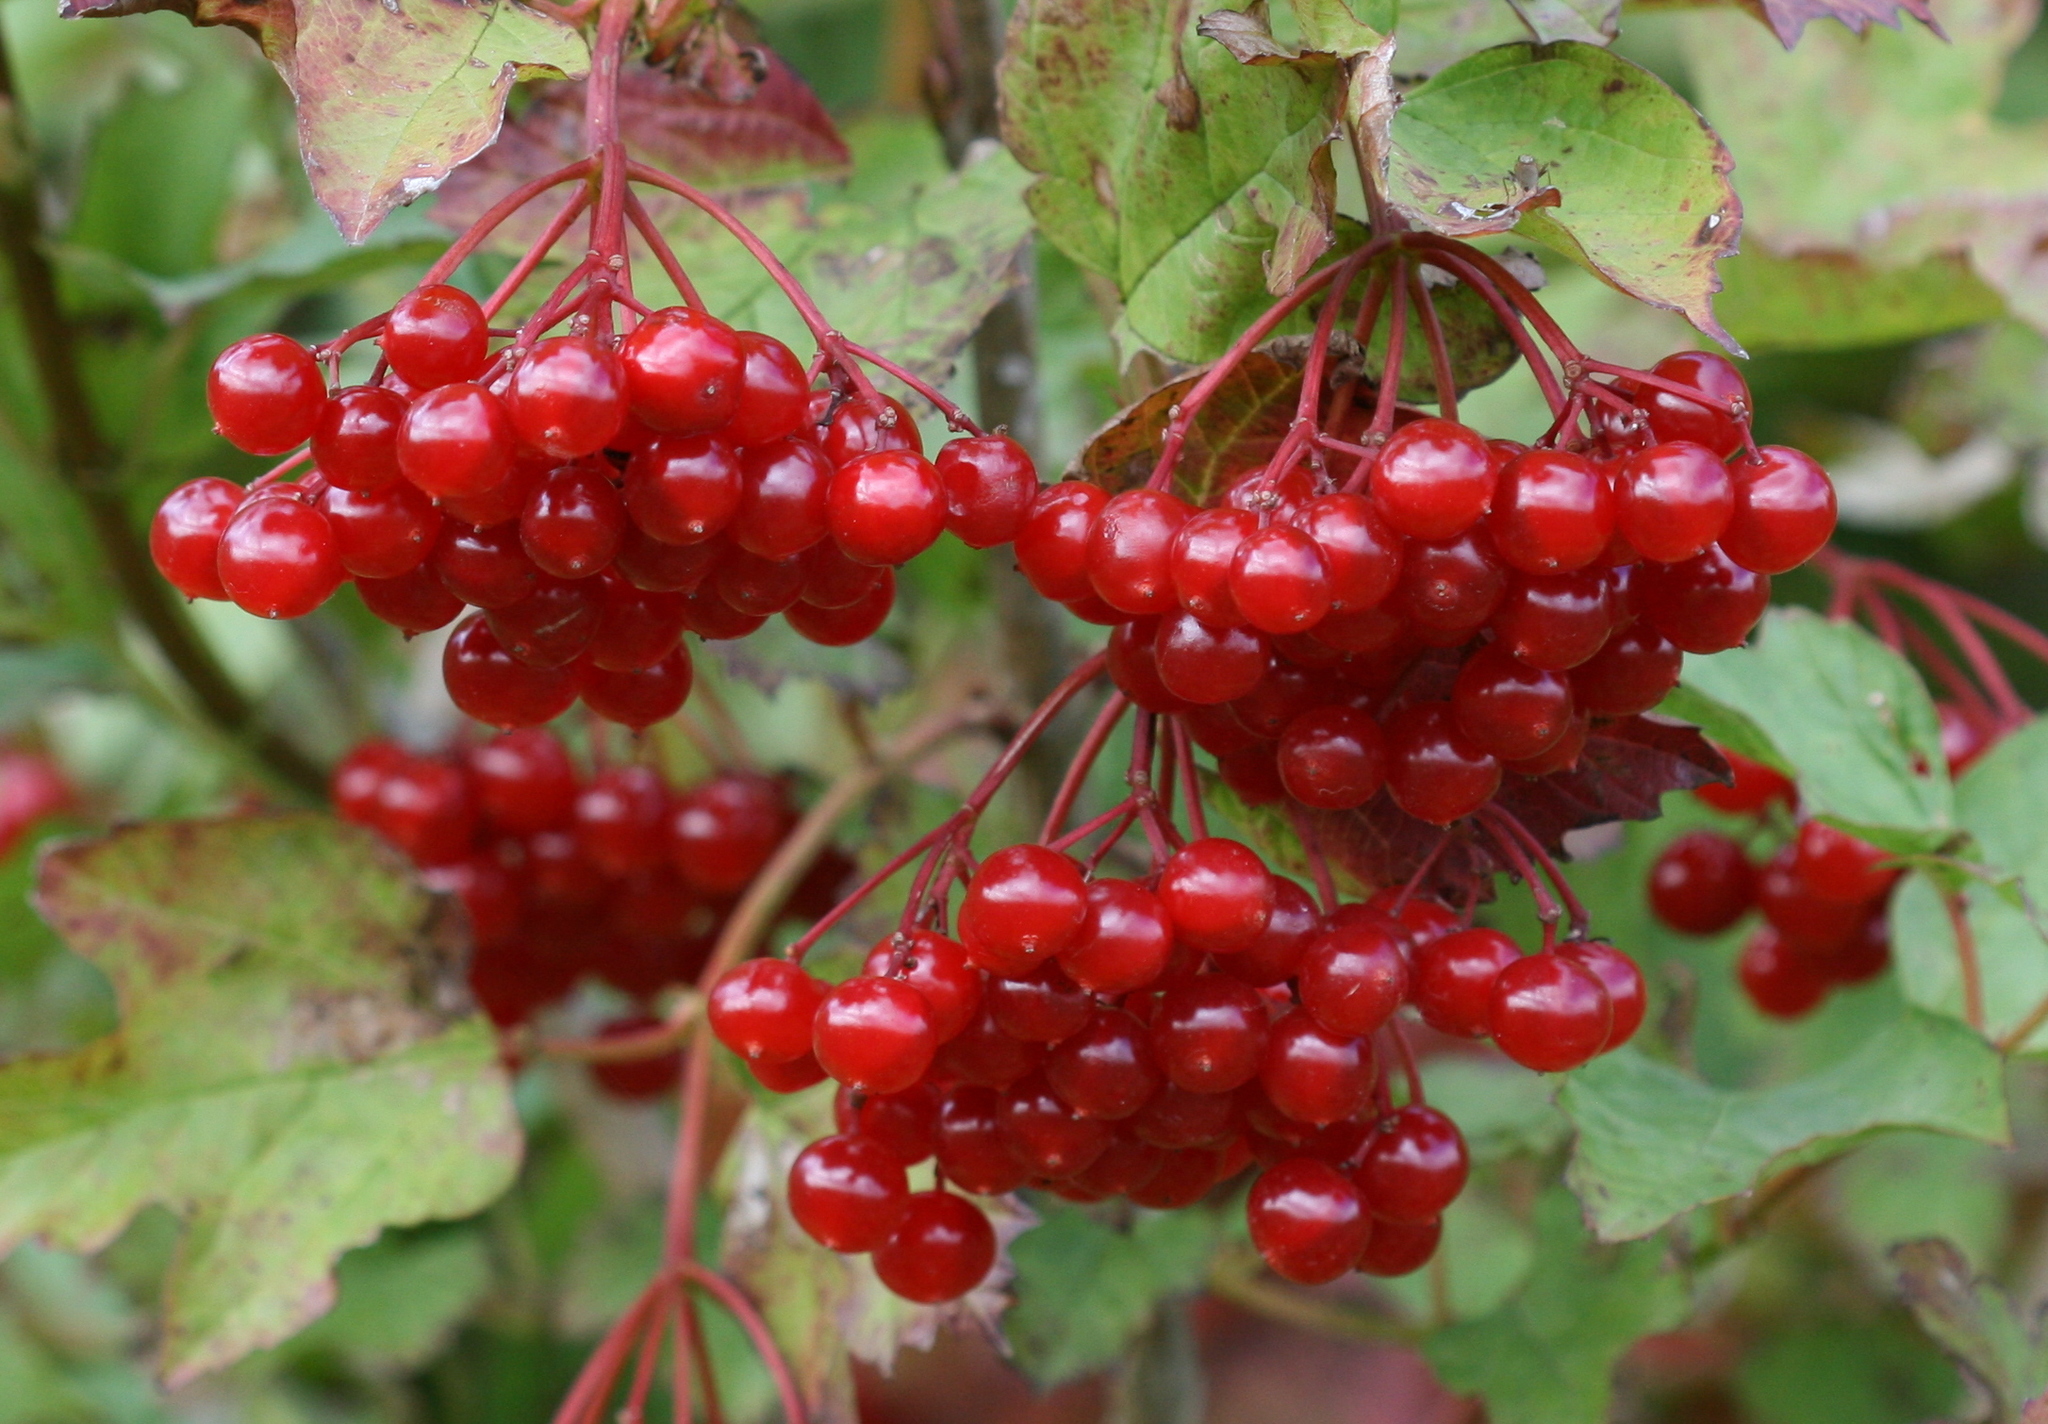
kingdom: Plantae
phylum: Tracheophyta
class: Magnoliopsida
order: Dipsacales
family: Viburnaceae
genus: Viburnum
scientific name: Viburnum opulus
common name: Guelder-rose
